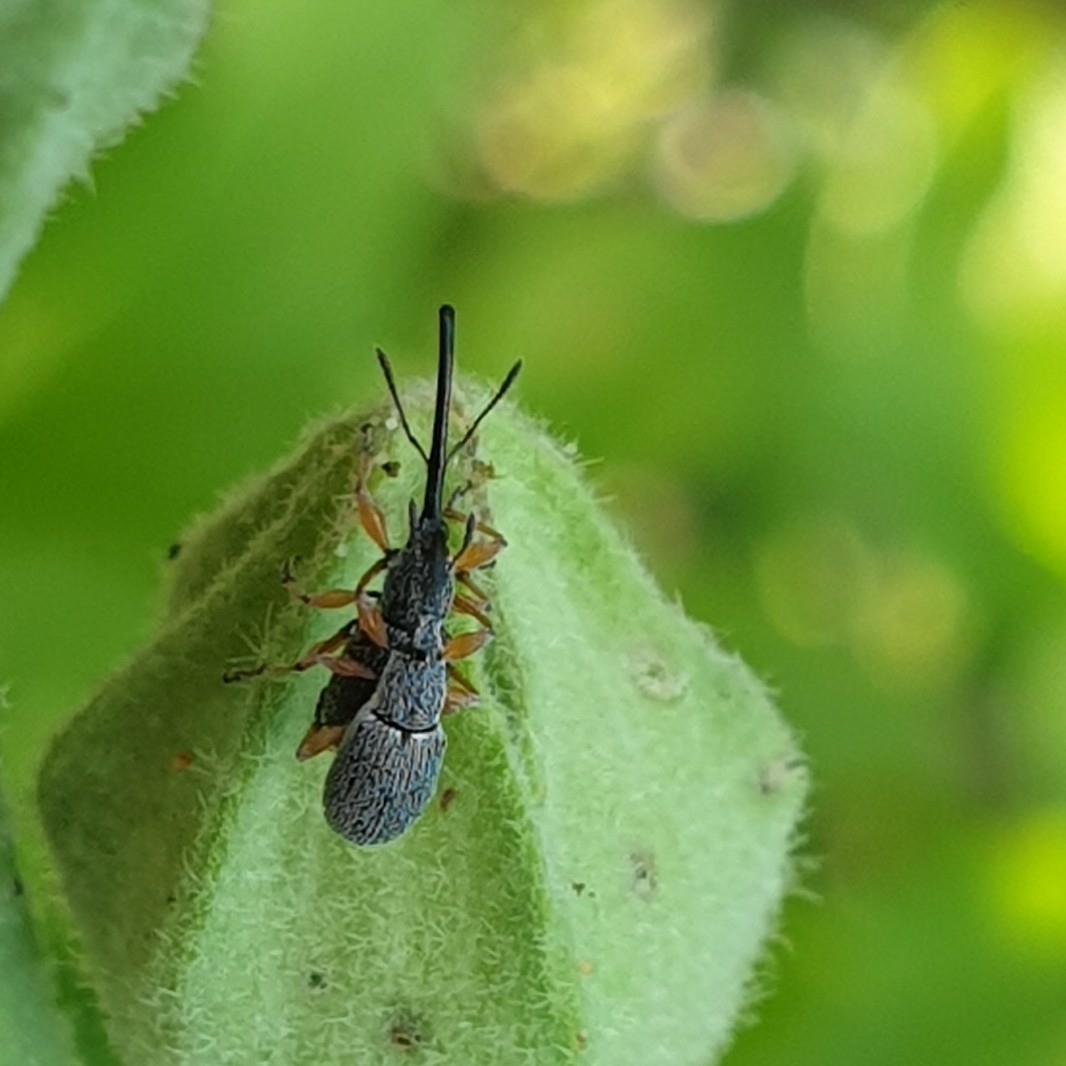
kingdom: Animalia
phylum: Arthropoda
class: Insecta
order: Coleoptera
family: Brentidae
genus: Rhopalapion
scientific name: Rhopalapion longirostre
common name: Hollyhock weevil
